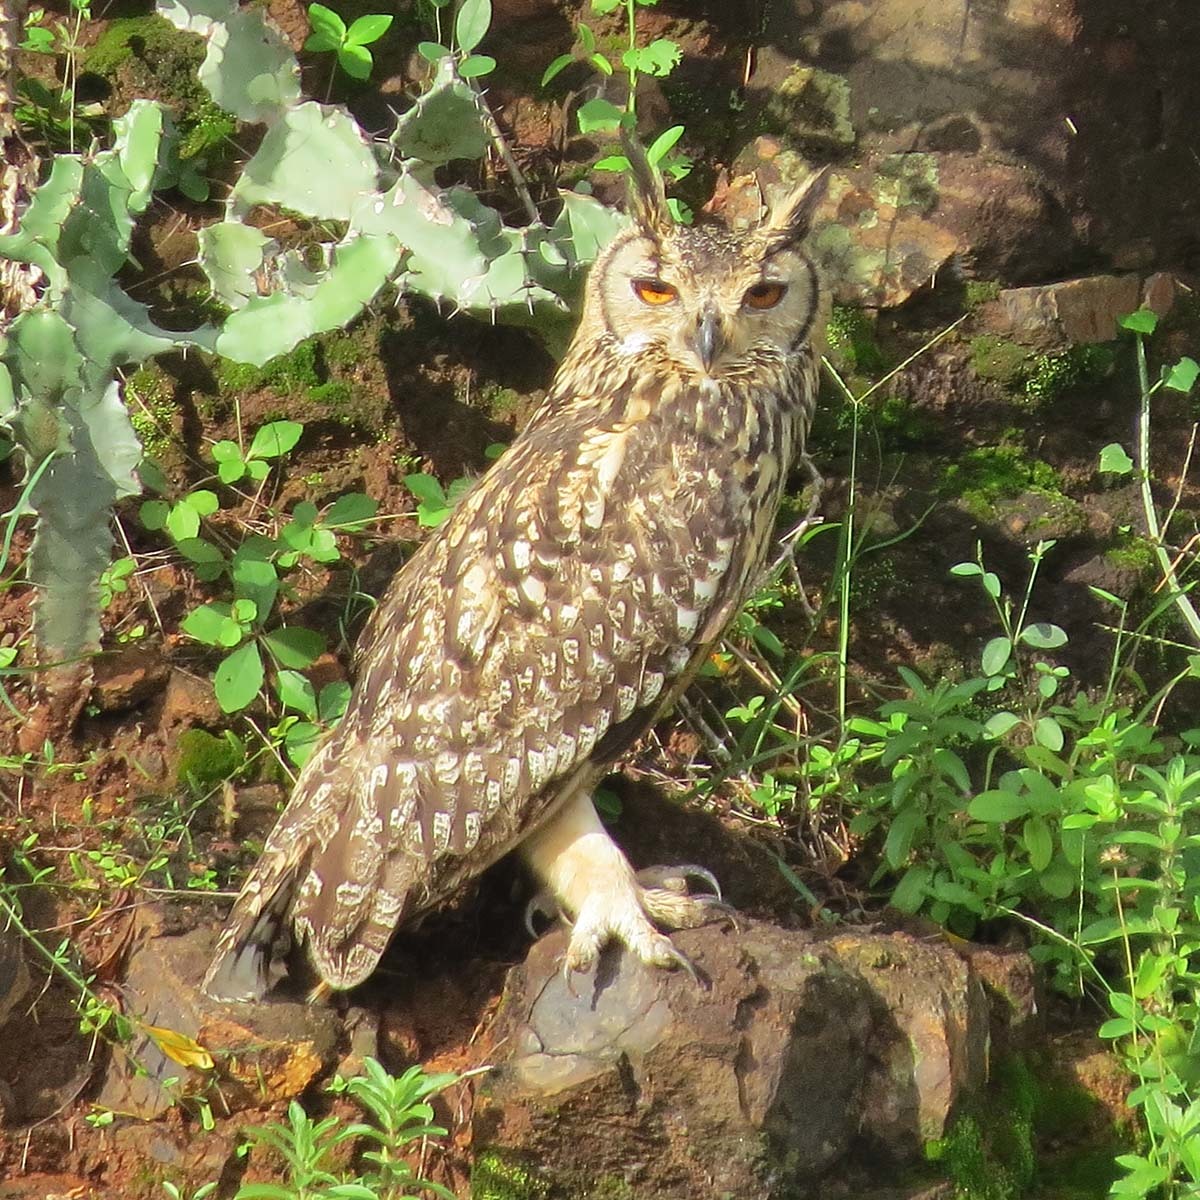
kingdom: Animalia
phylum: Chordata
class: Aves
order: Strigiformes
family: Strigidae
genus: Bubo
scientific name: Bubo bengalensis
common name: Indian eagle-owl
